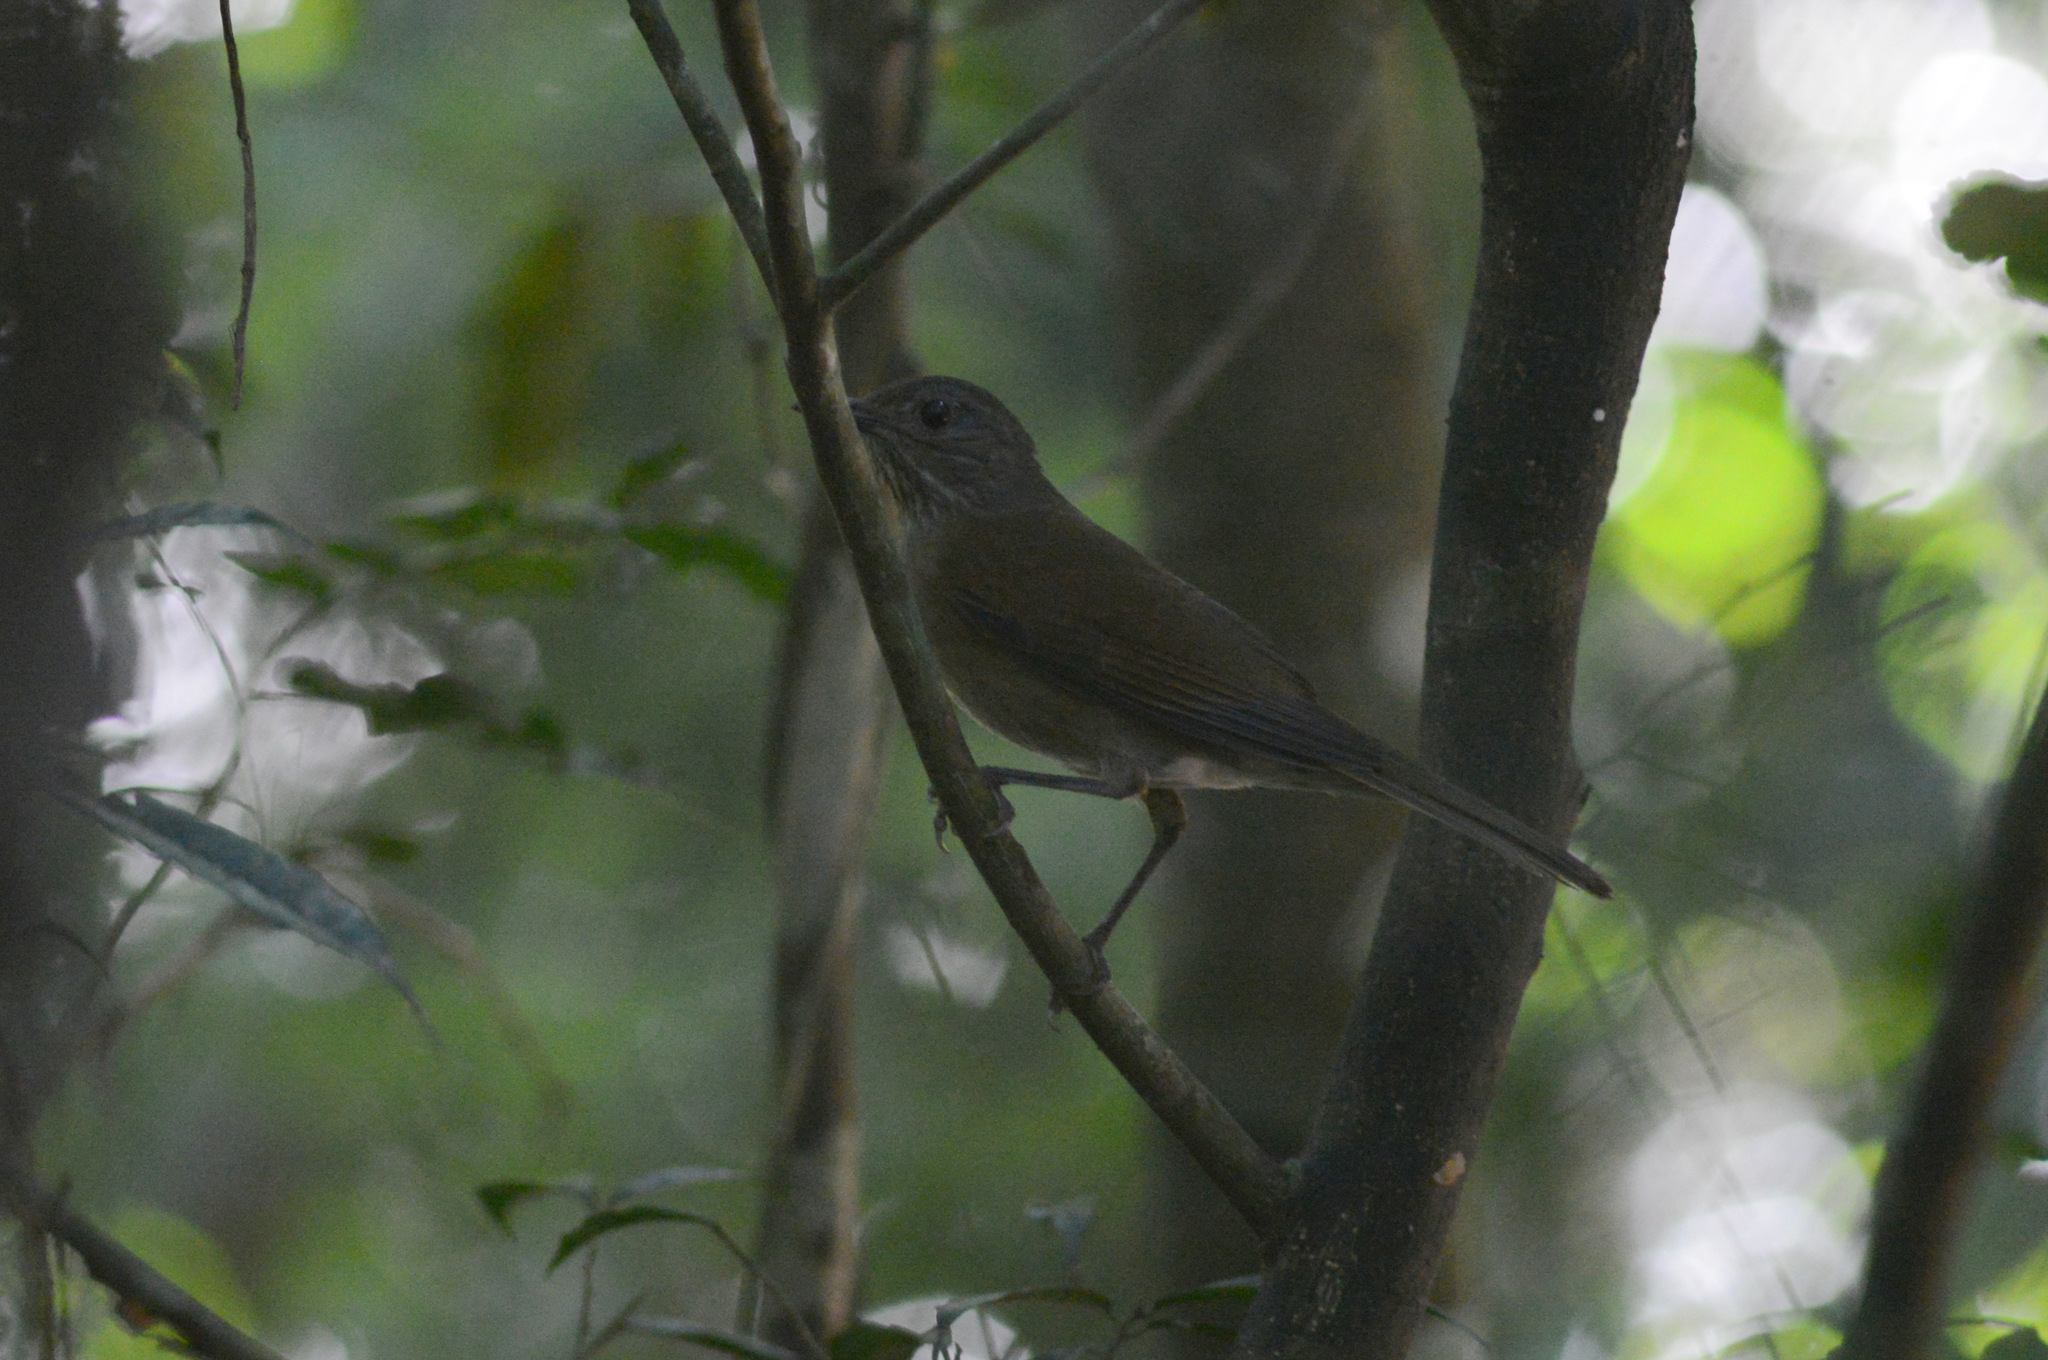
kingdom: Animalia
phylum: Chordata
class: Aves
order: Passeriformes
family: Turdidae
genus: Turdus
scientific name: Turdus leucomelas
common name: Pale-breasted thrush
